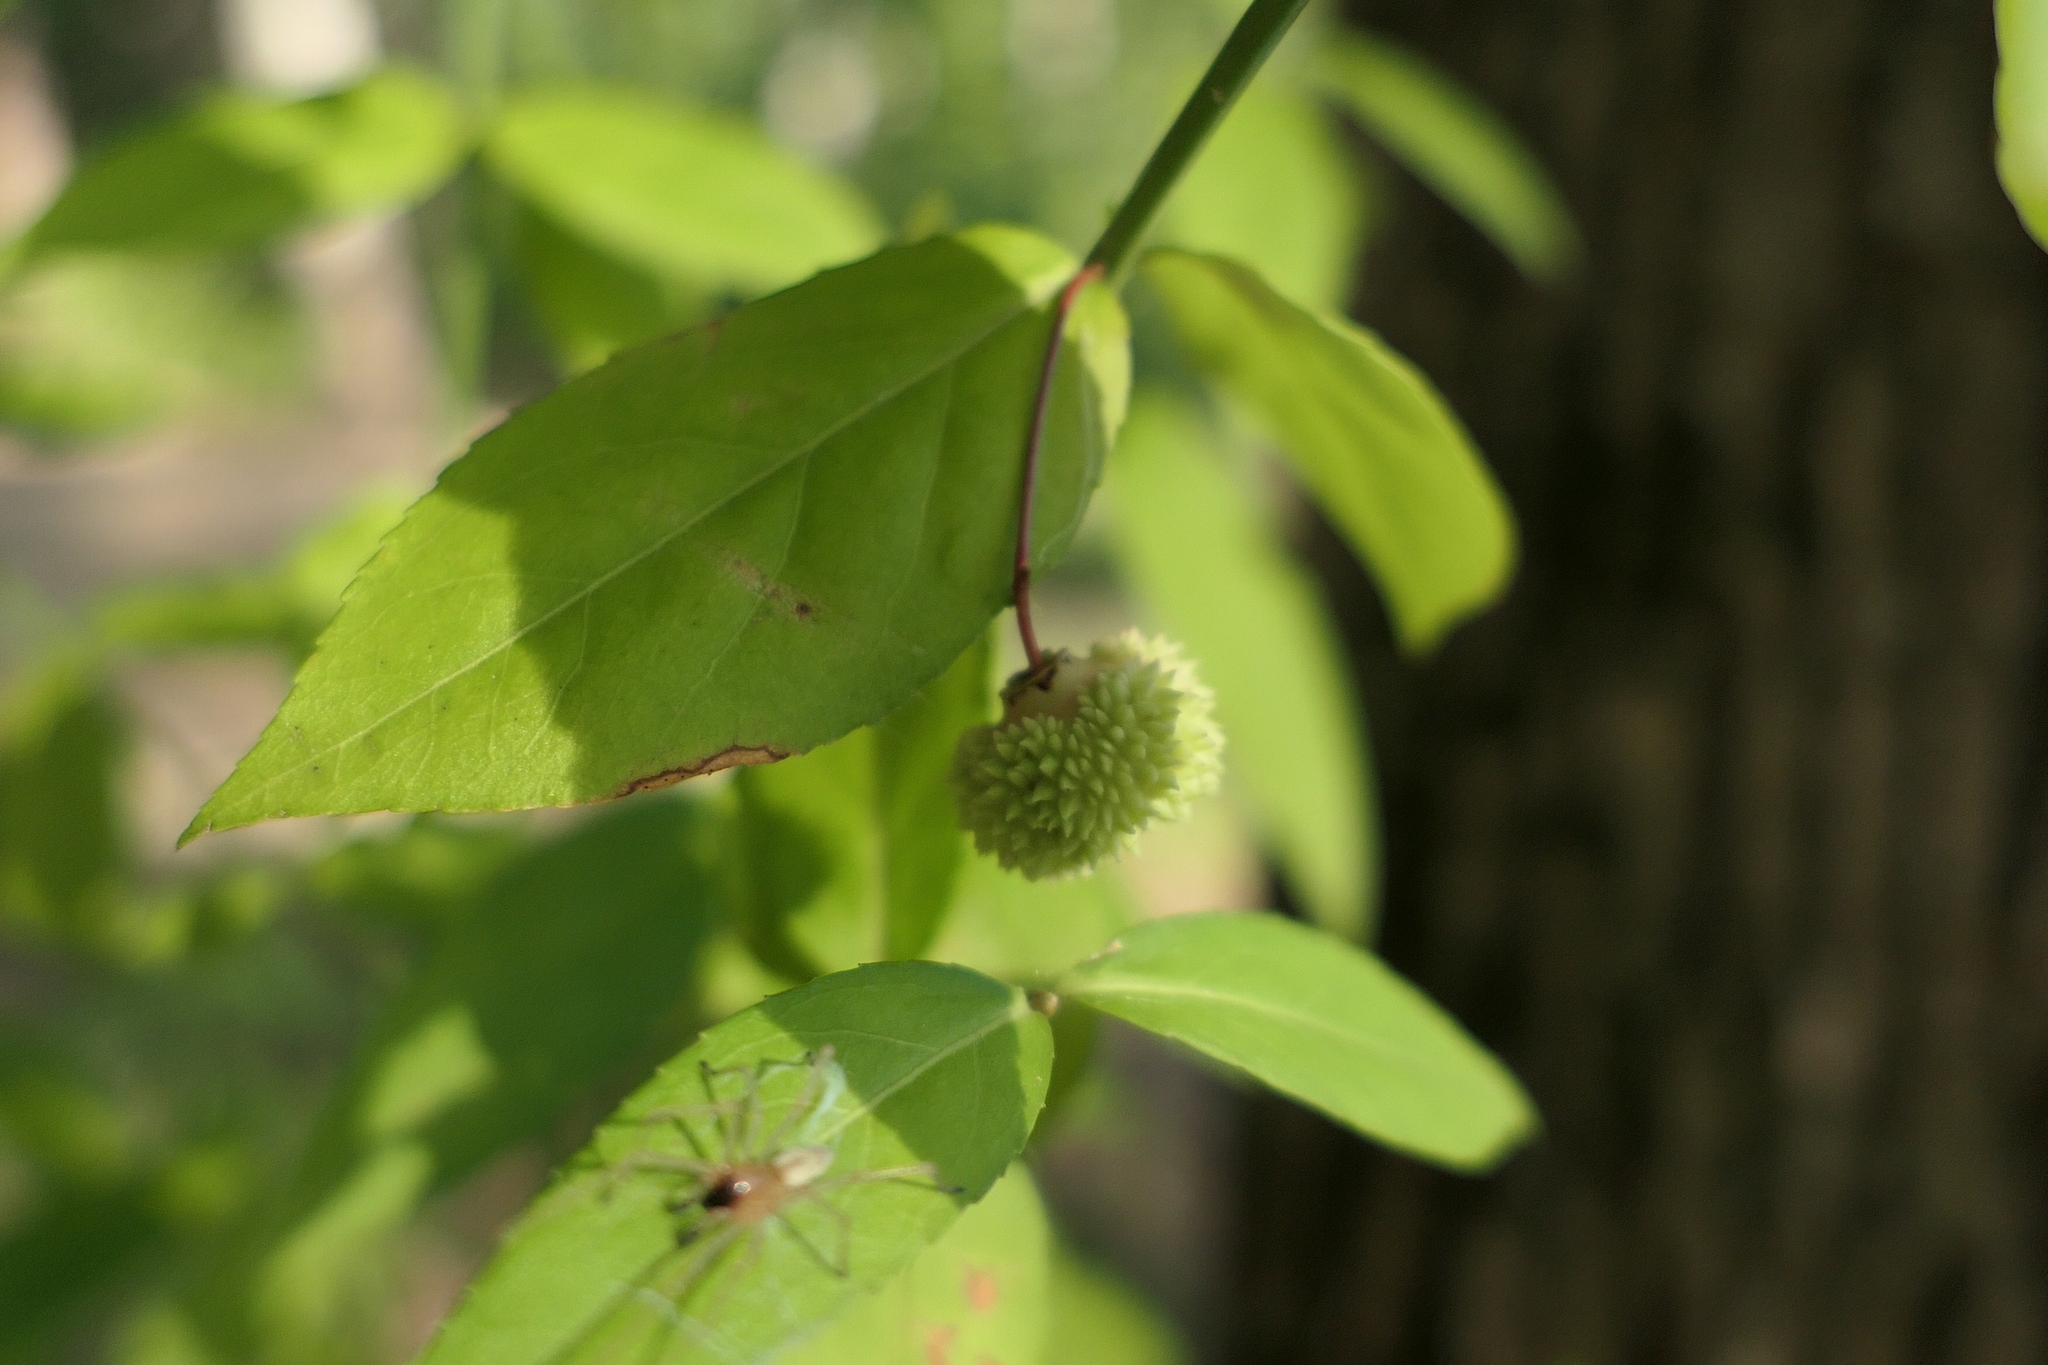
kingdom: Plantae
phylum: Tracheophyta
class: Magnoliopsida
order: Celastrales
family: Celastraceae
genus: Euonymus
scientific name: Euonymus americanus
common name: Bursting-heart
